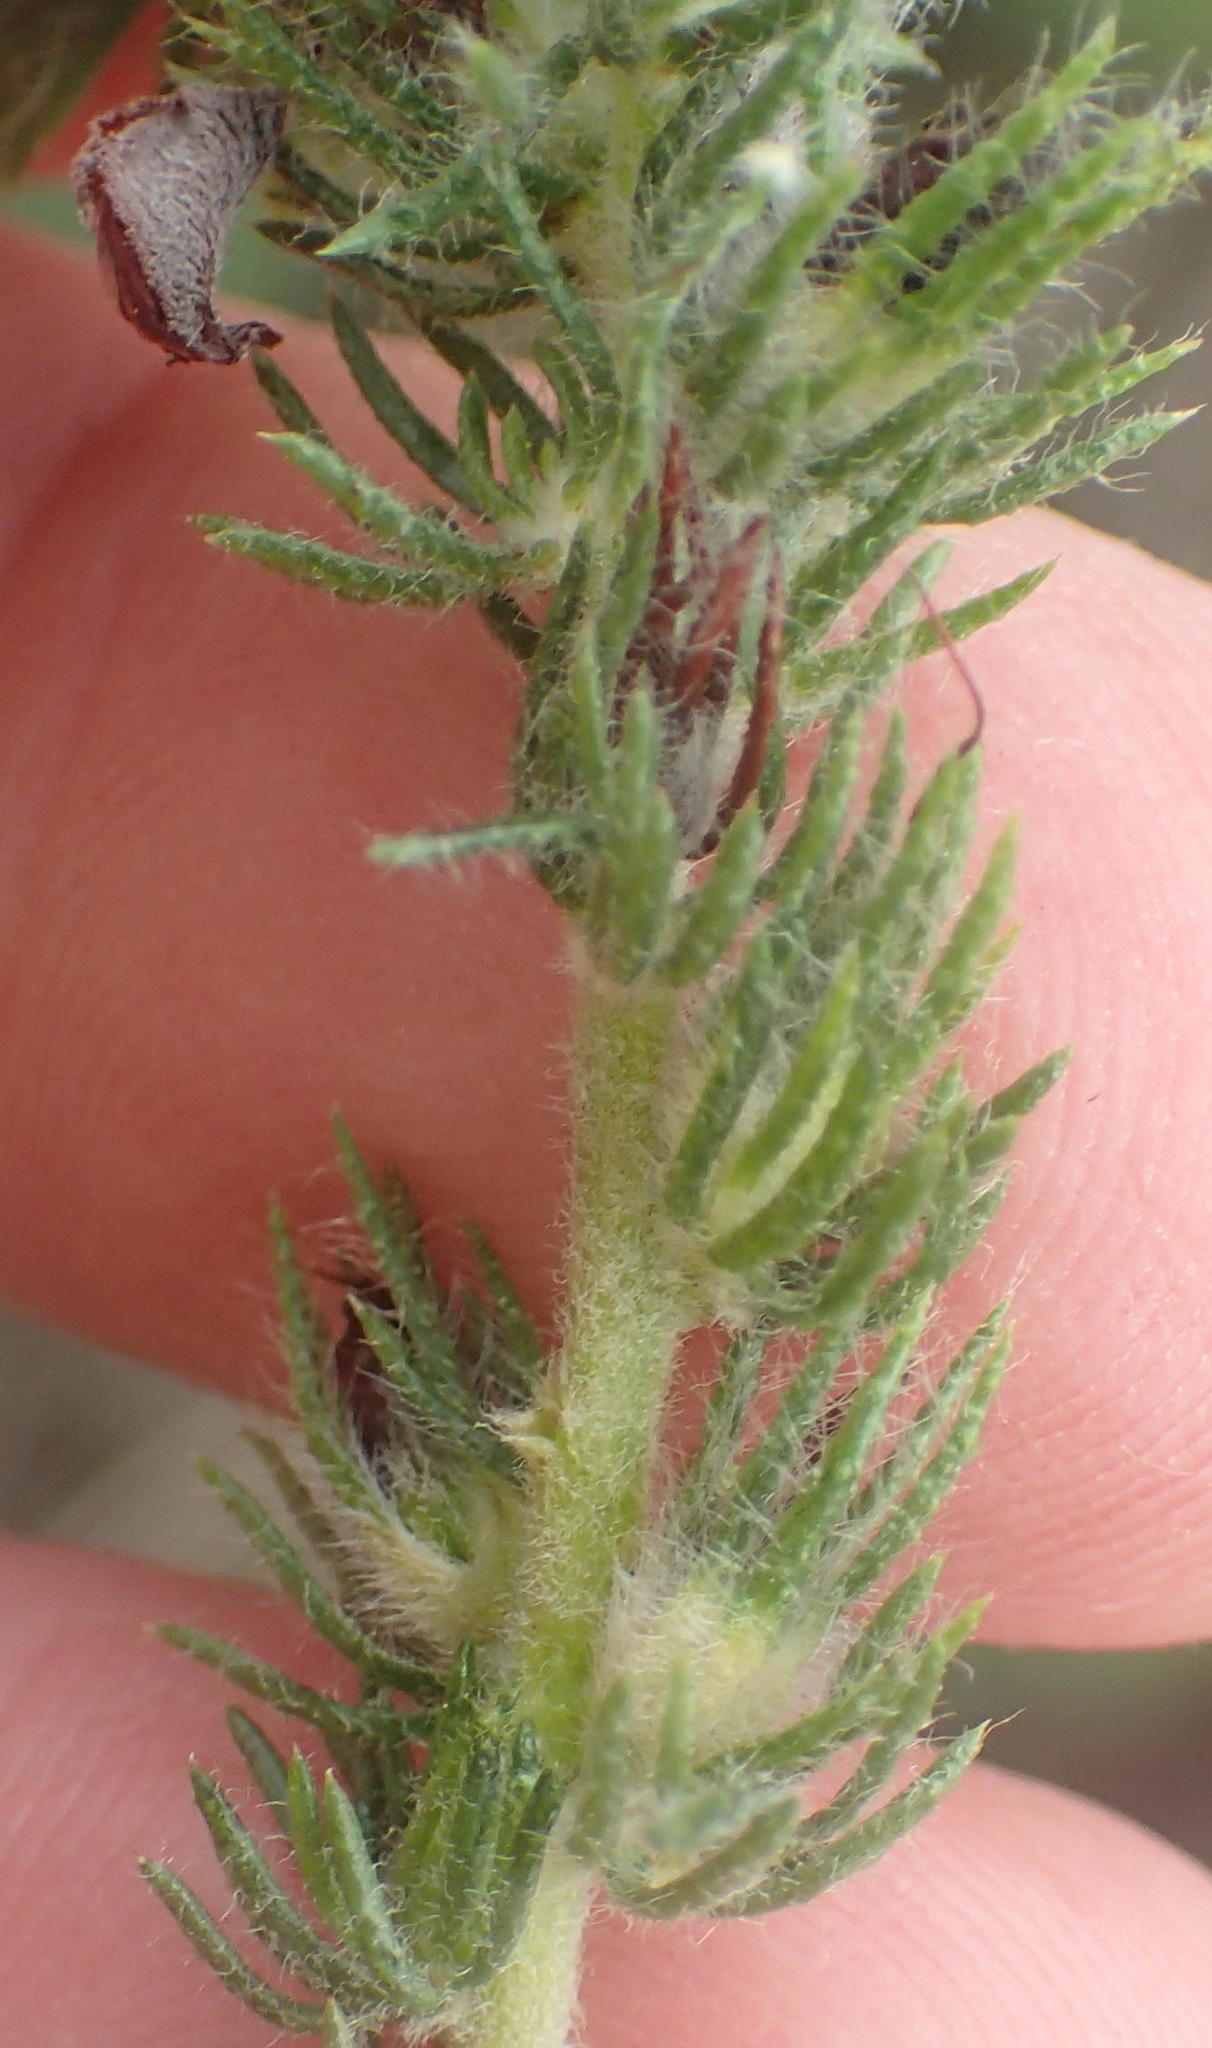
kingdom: Plantae
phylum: Tracheophyta
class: Magnoliopsida
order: Fabales
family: Fabaceae
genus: Aspalathus
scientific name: Aspalathus ciliaris
